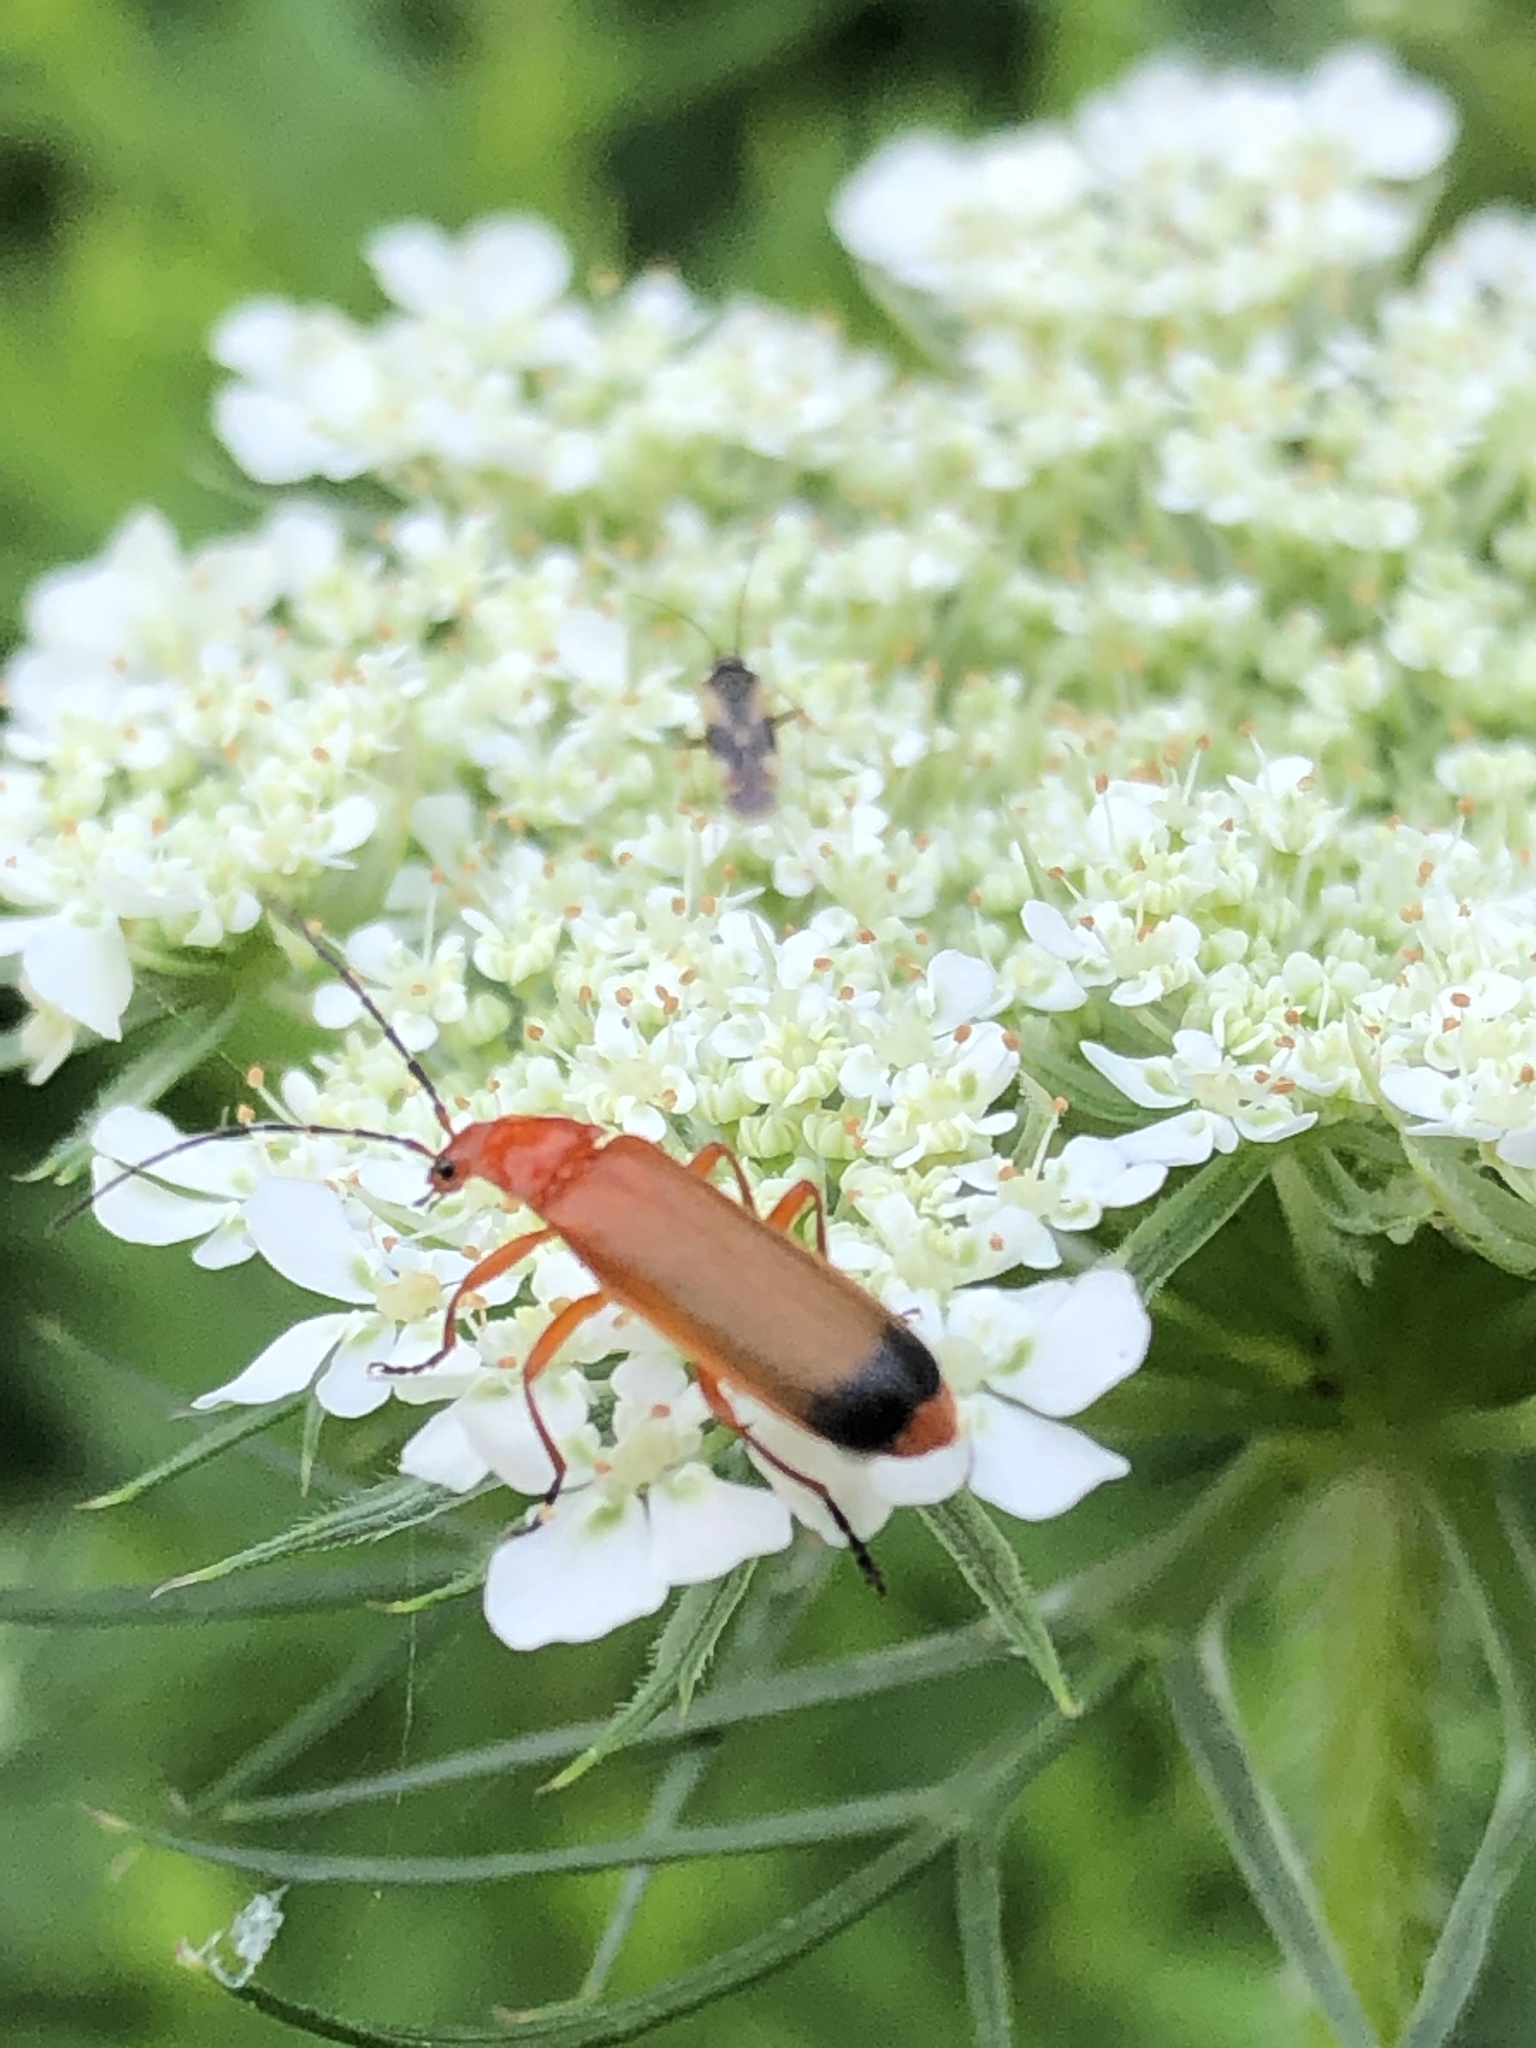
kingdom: Animalia
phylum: Arthropoda
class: Insecta
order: Coleoptera
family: Cantharidae
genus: Rhagonycha
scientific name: Rhagonycha fulva
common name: Common red soldier beetle
